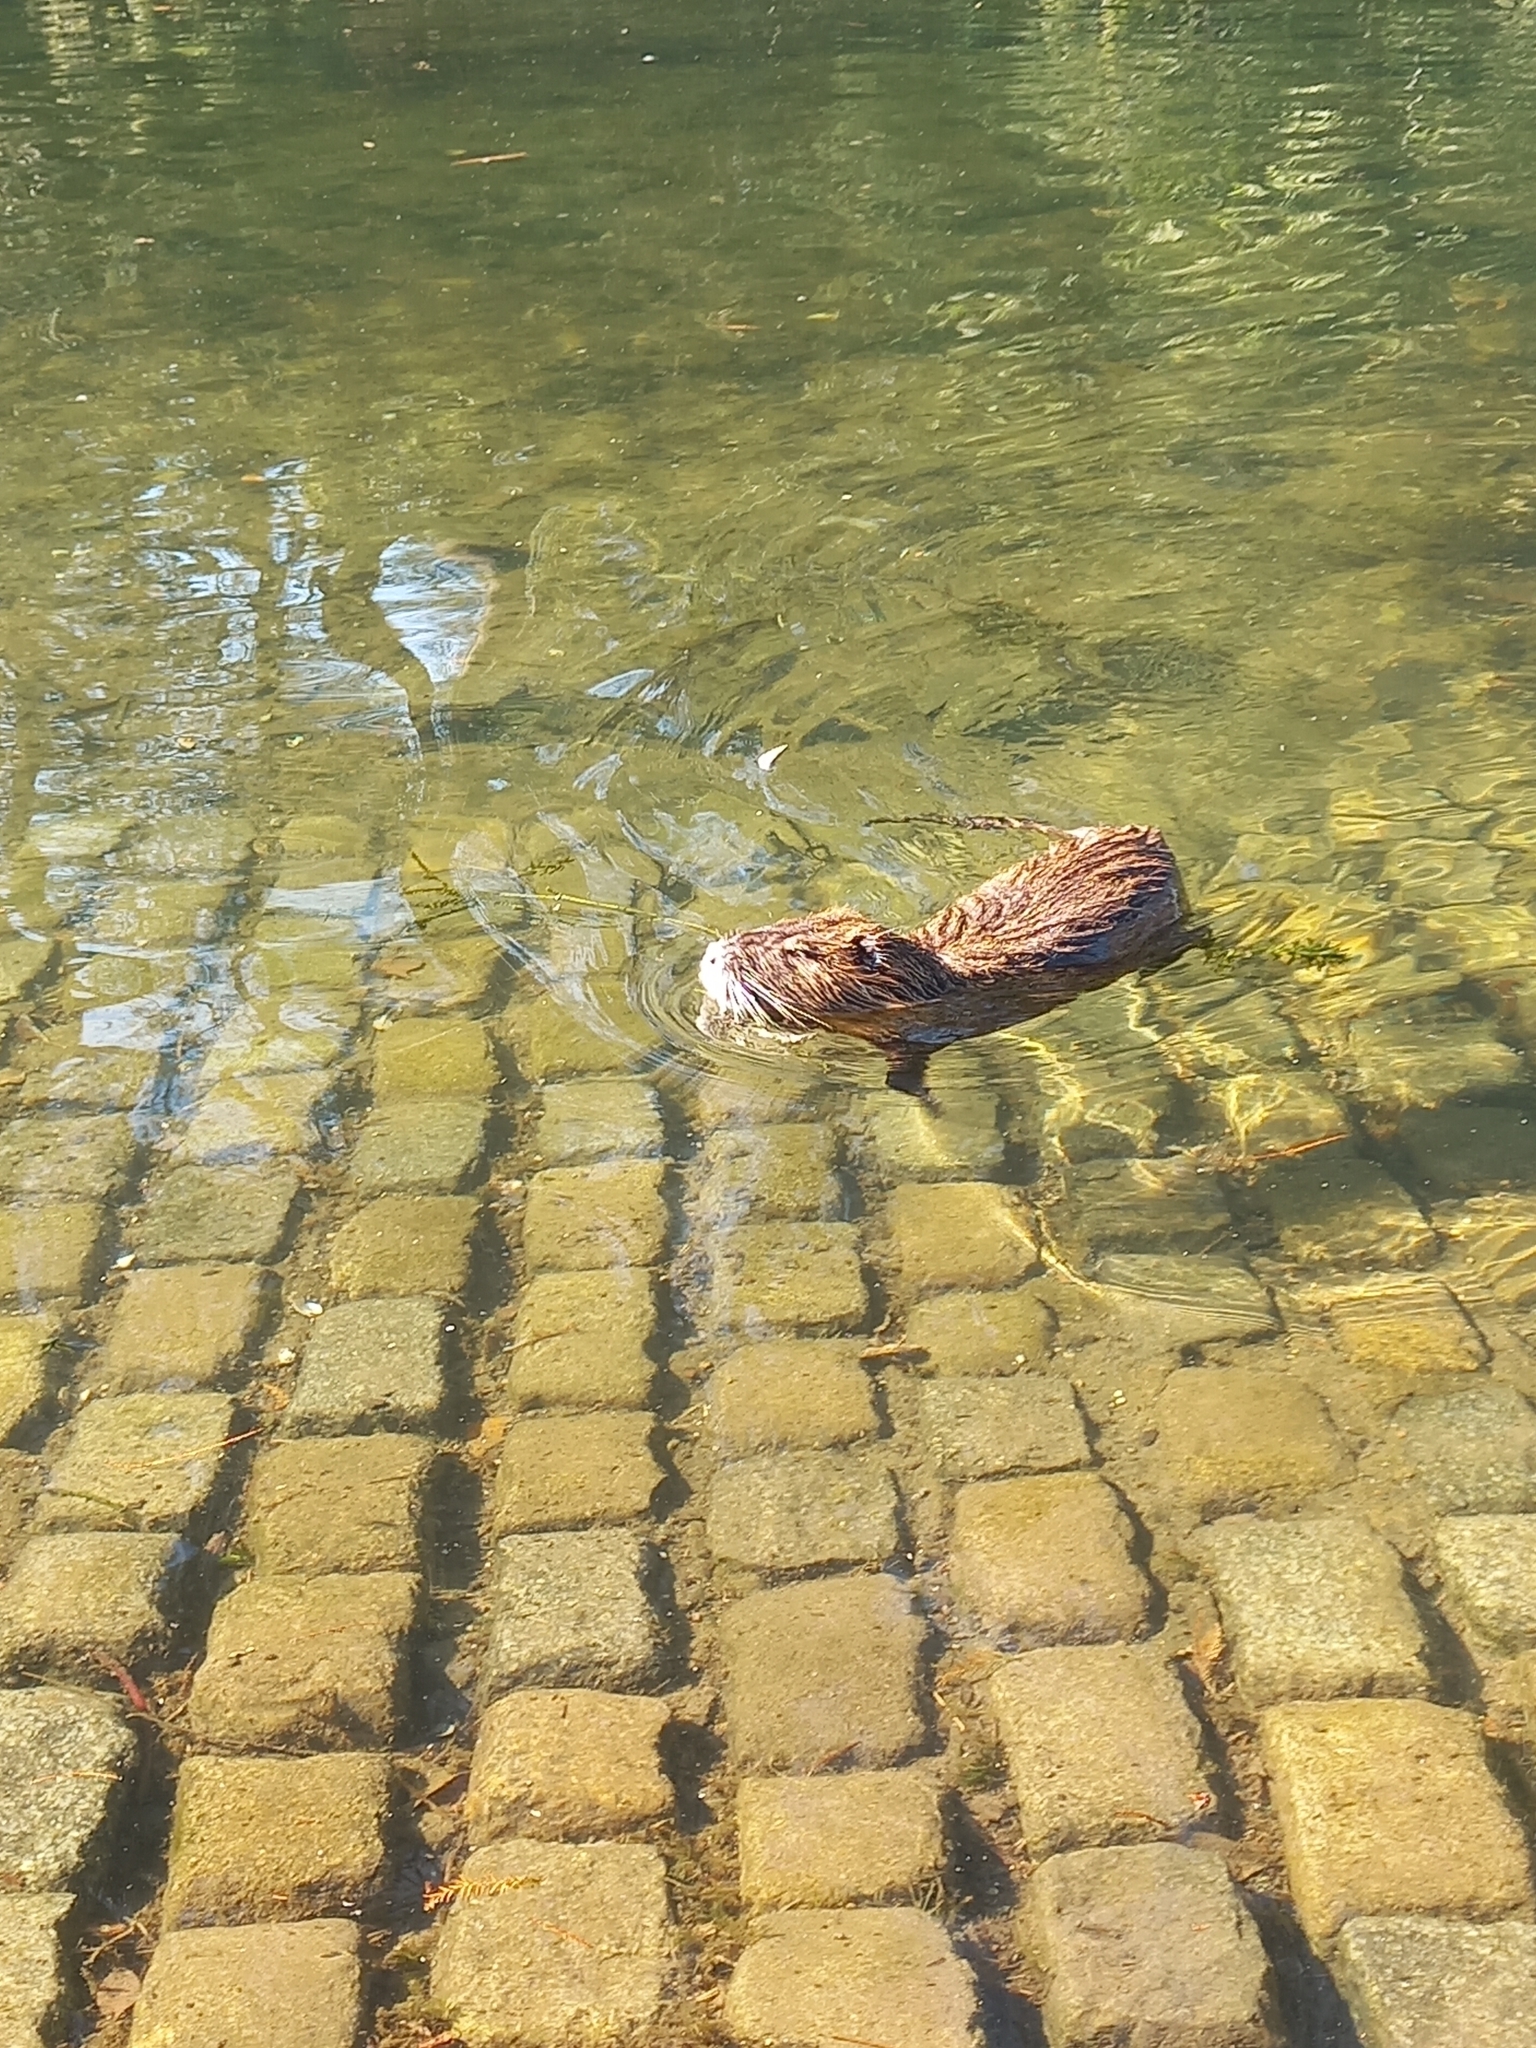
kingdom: Animalia
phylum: Chordata
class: Mammalia
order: Rodentia
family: Myocastoridae
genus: Myocastor
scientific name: Myocastor coypus
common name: Coypu
